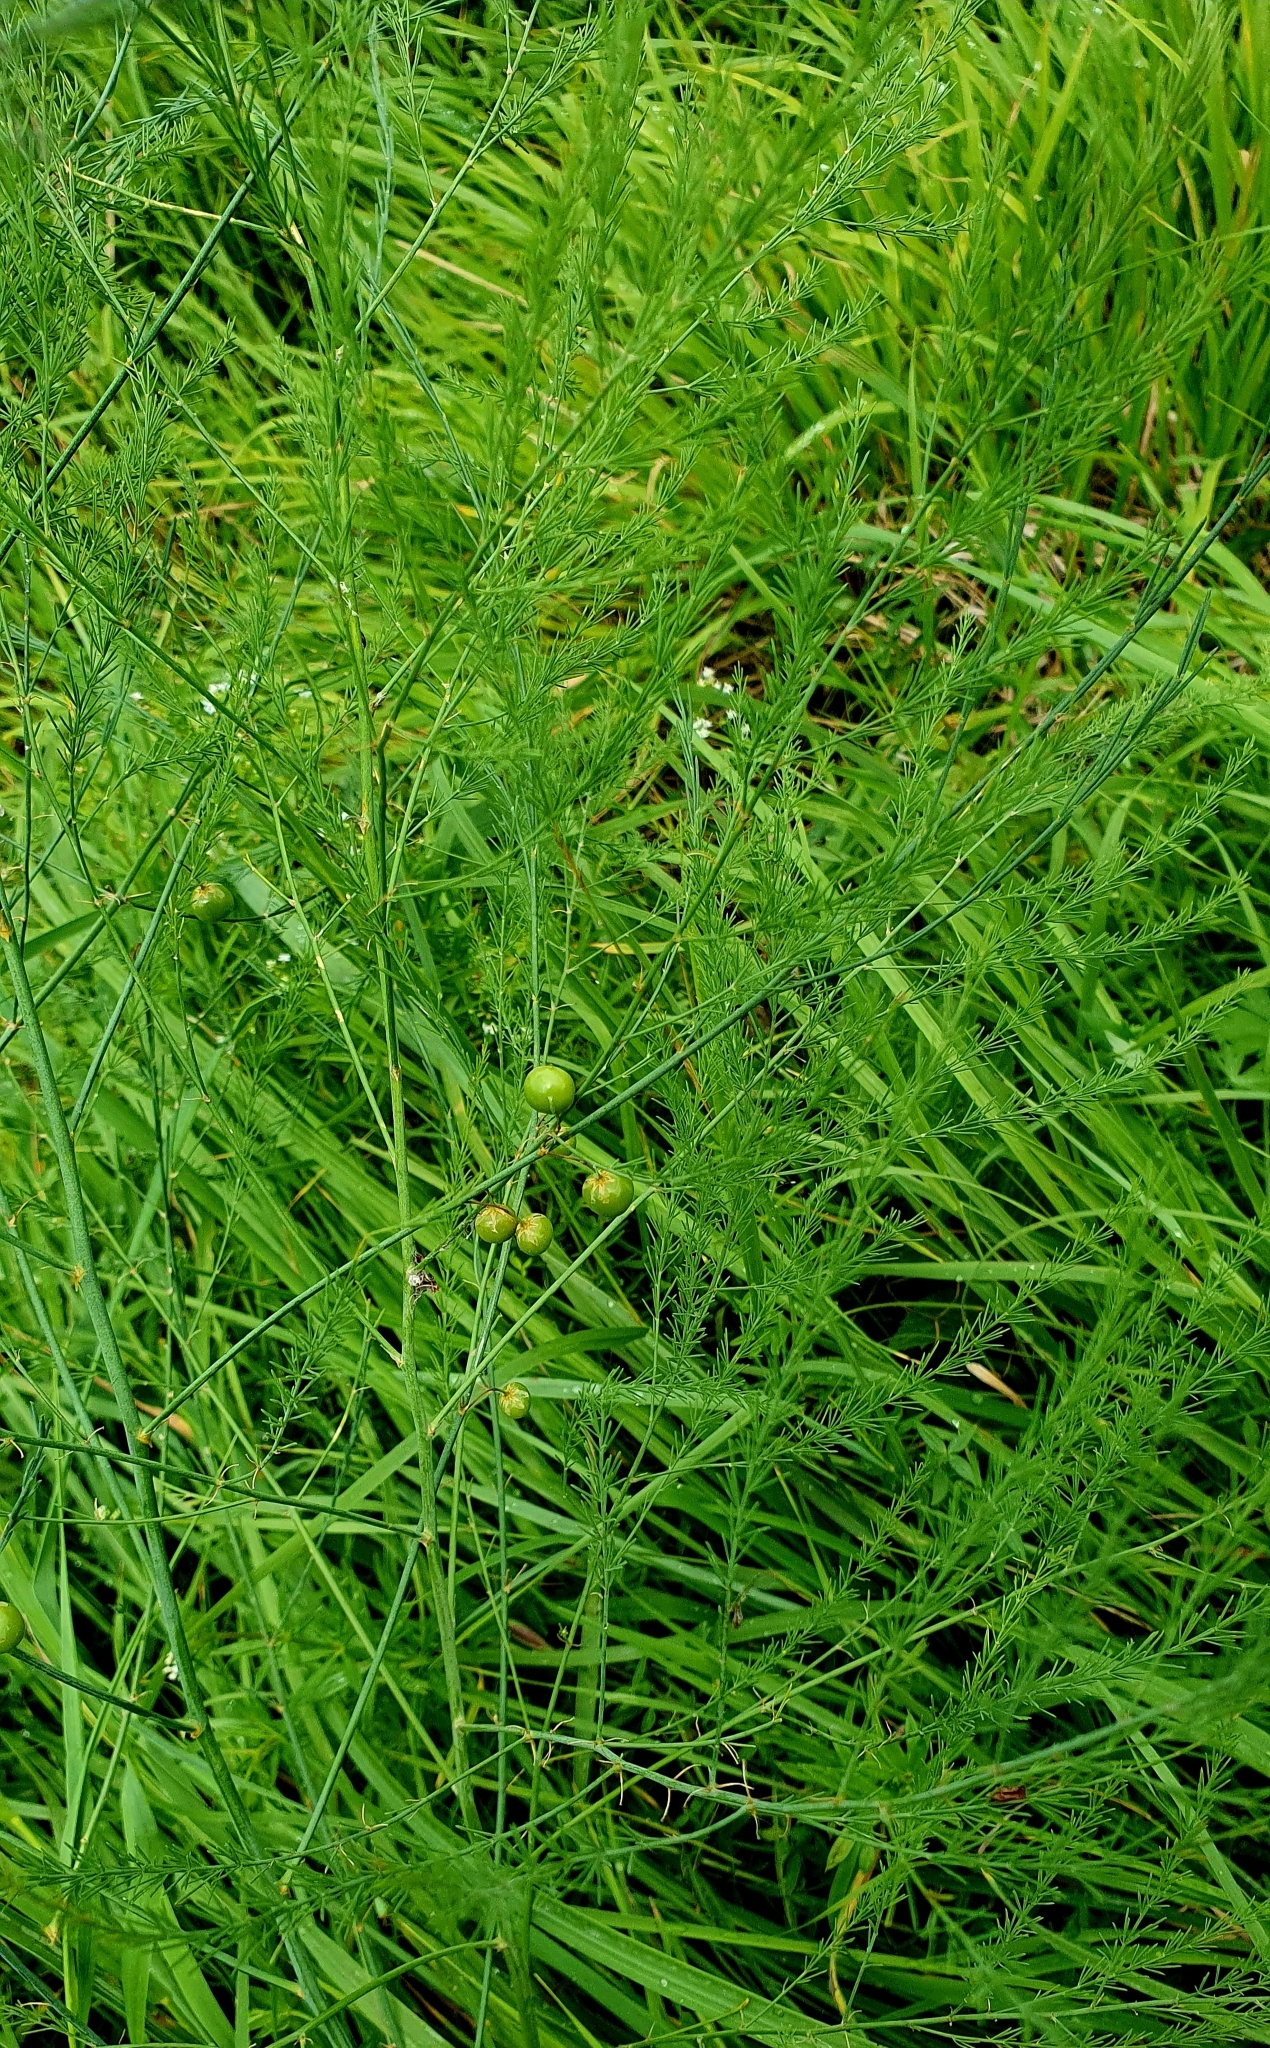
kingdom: Plantae
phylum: Tracheophyta
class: Liliopsida
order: Asparagales
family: Asparagaceae
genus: Asparagus
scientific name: Asparagus officinalis
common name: Garden asparagus
